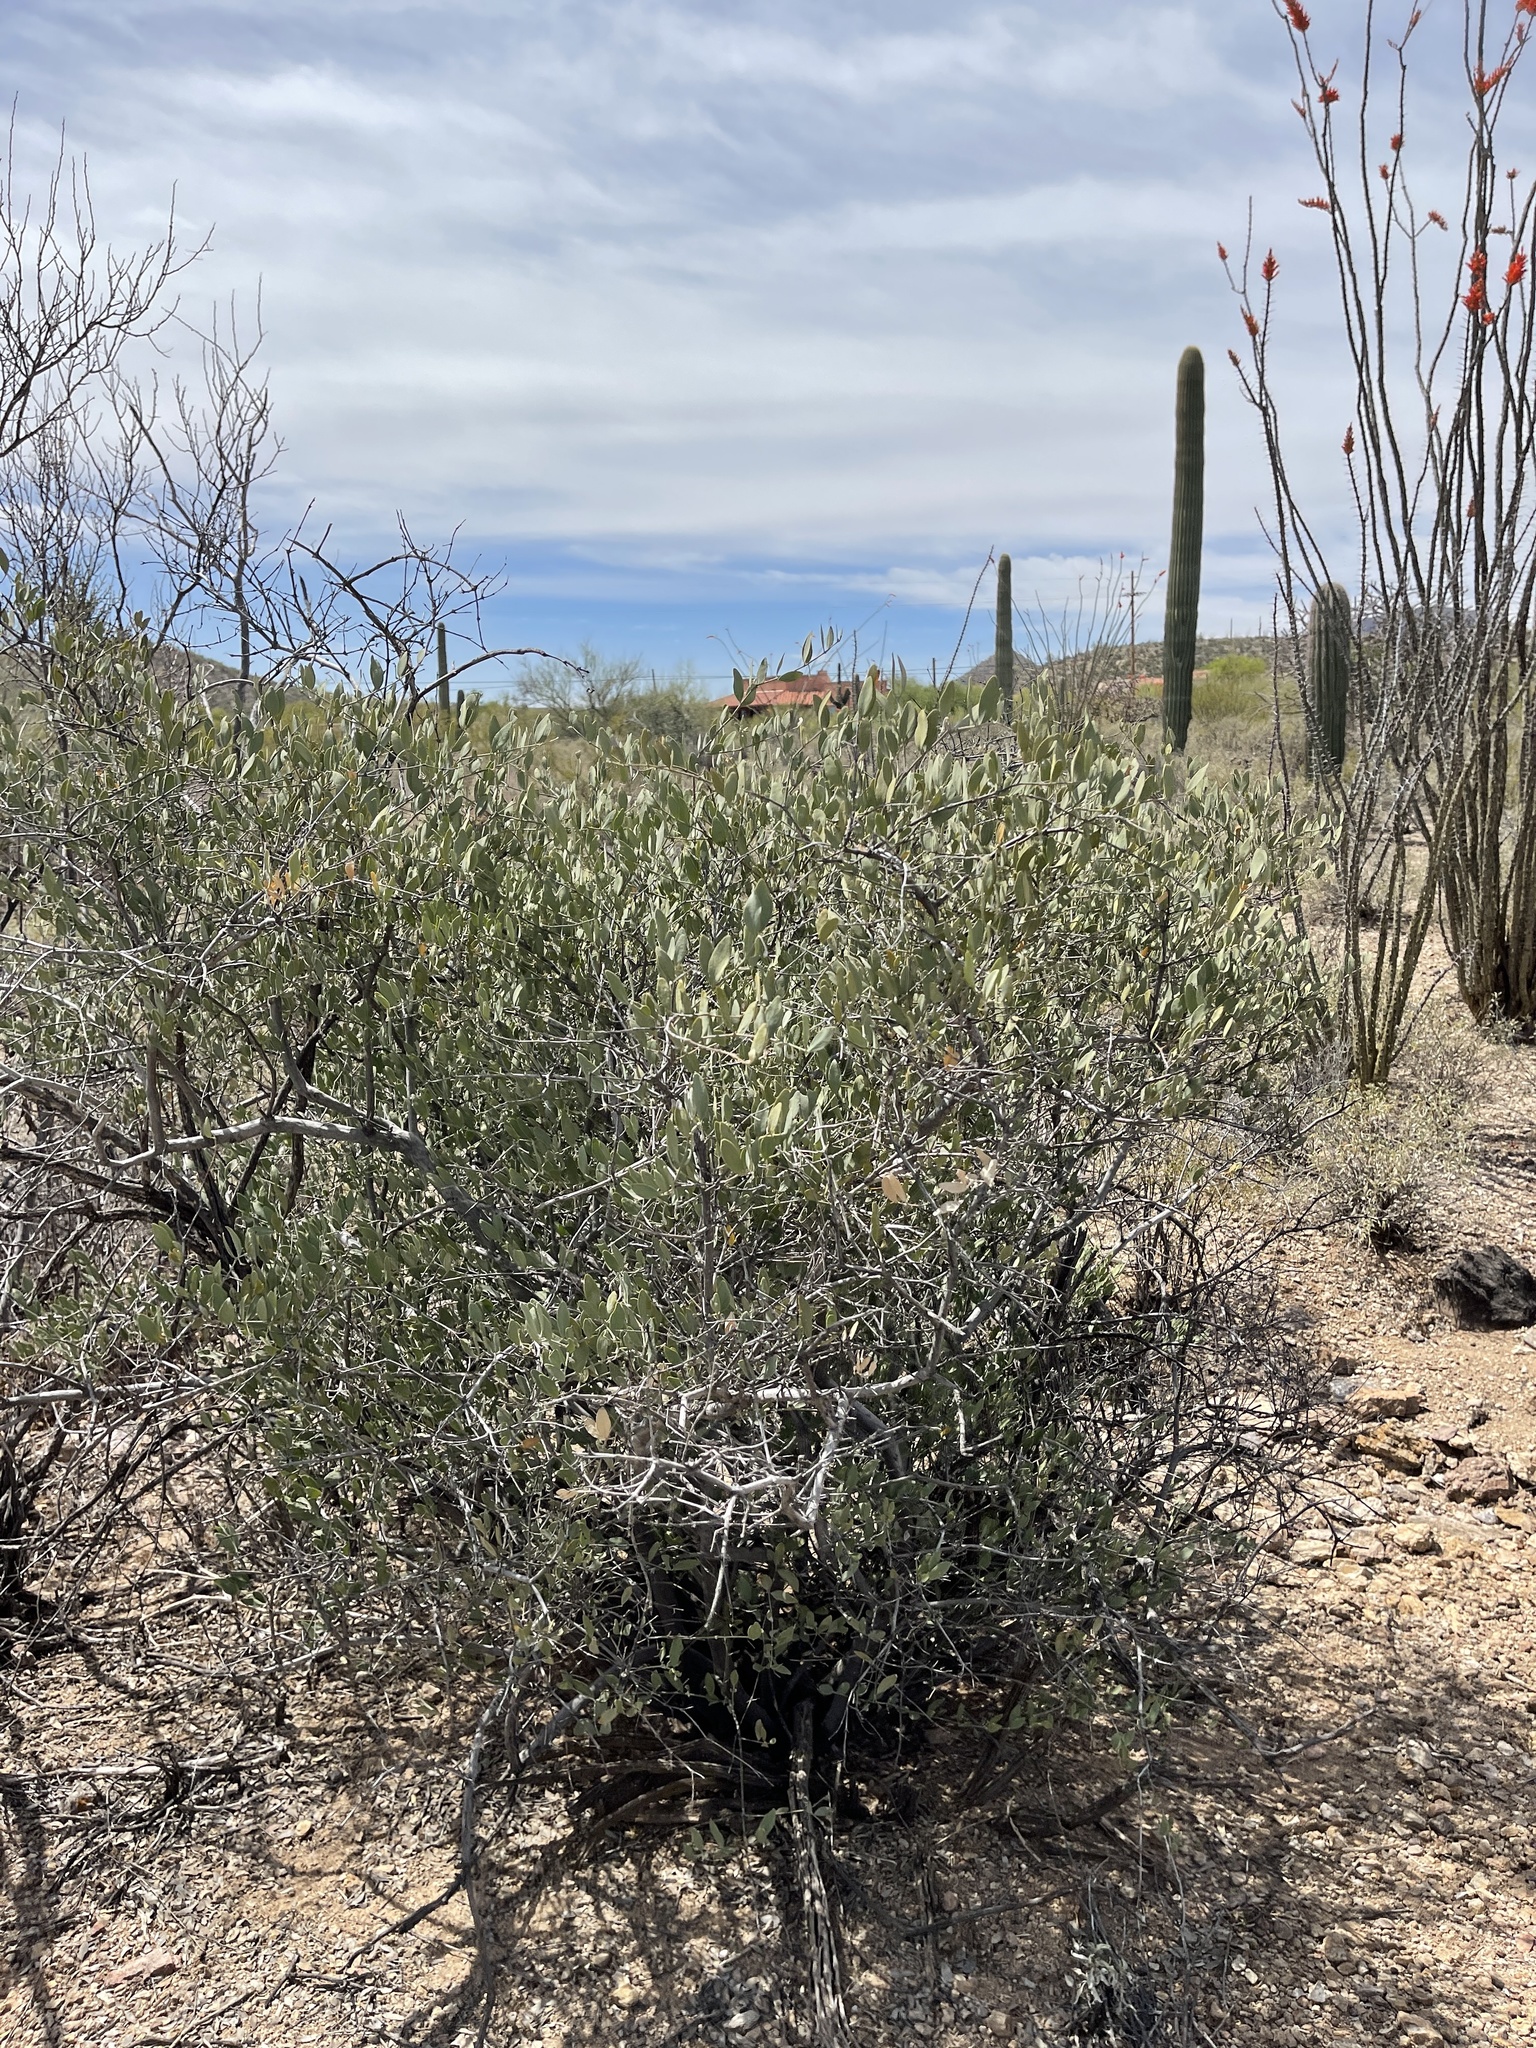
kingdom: Plantae
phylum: Tracheophyta
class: Magnoliopsida
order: Caryophyllales
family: Simmondsiaceae
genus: Simmondsia
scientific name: Simmondsia chinensis
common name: Jojoba
